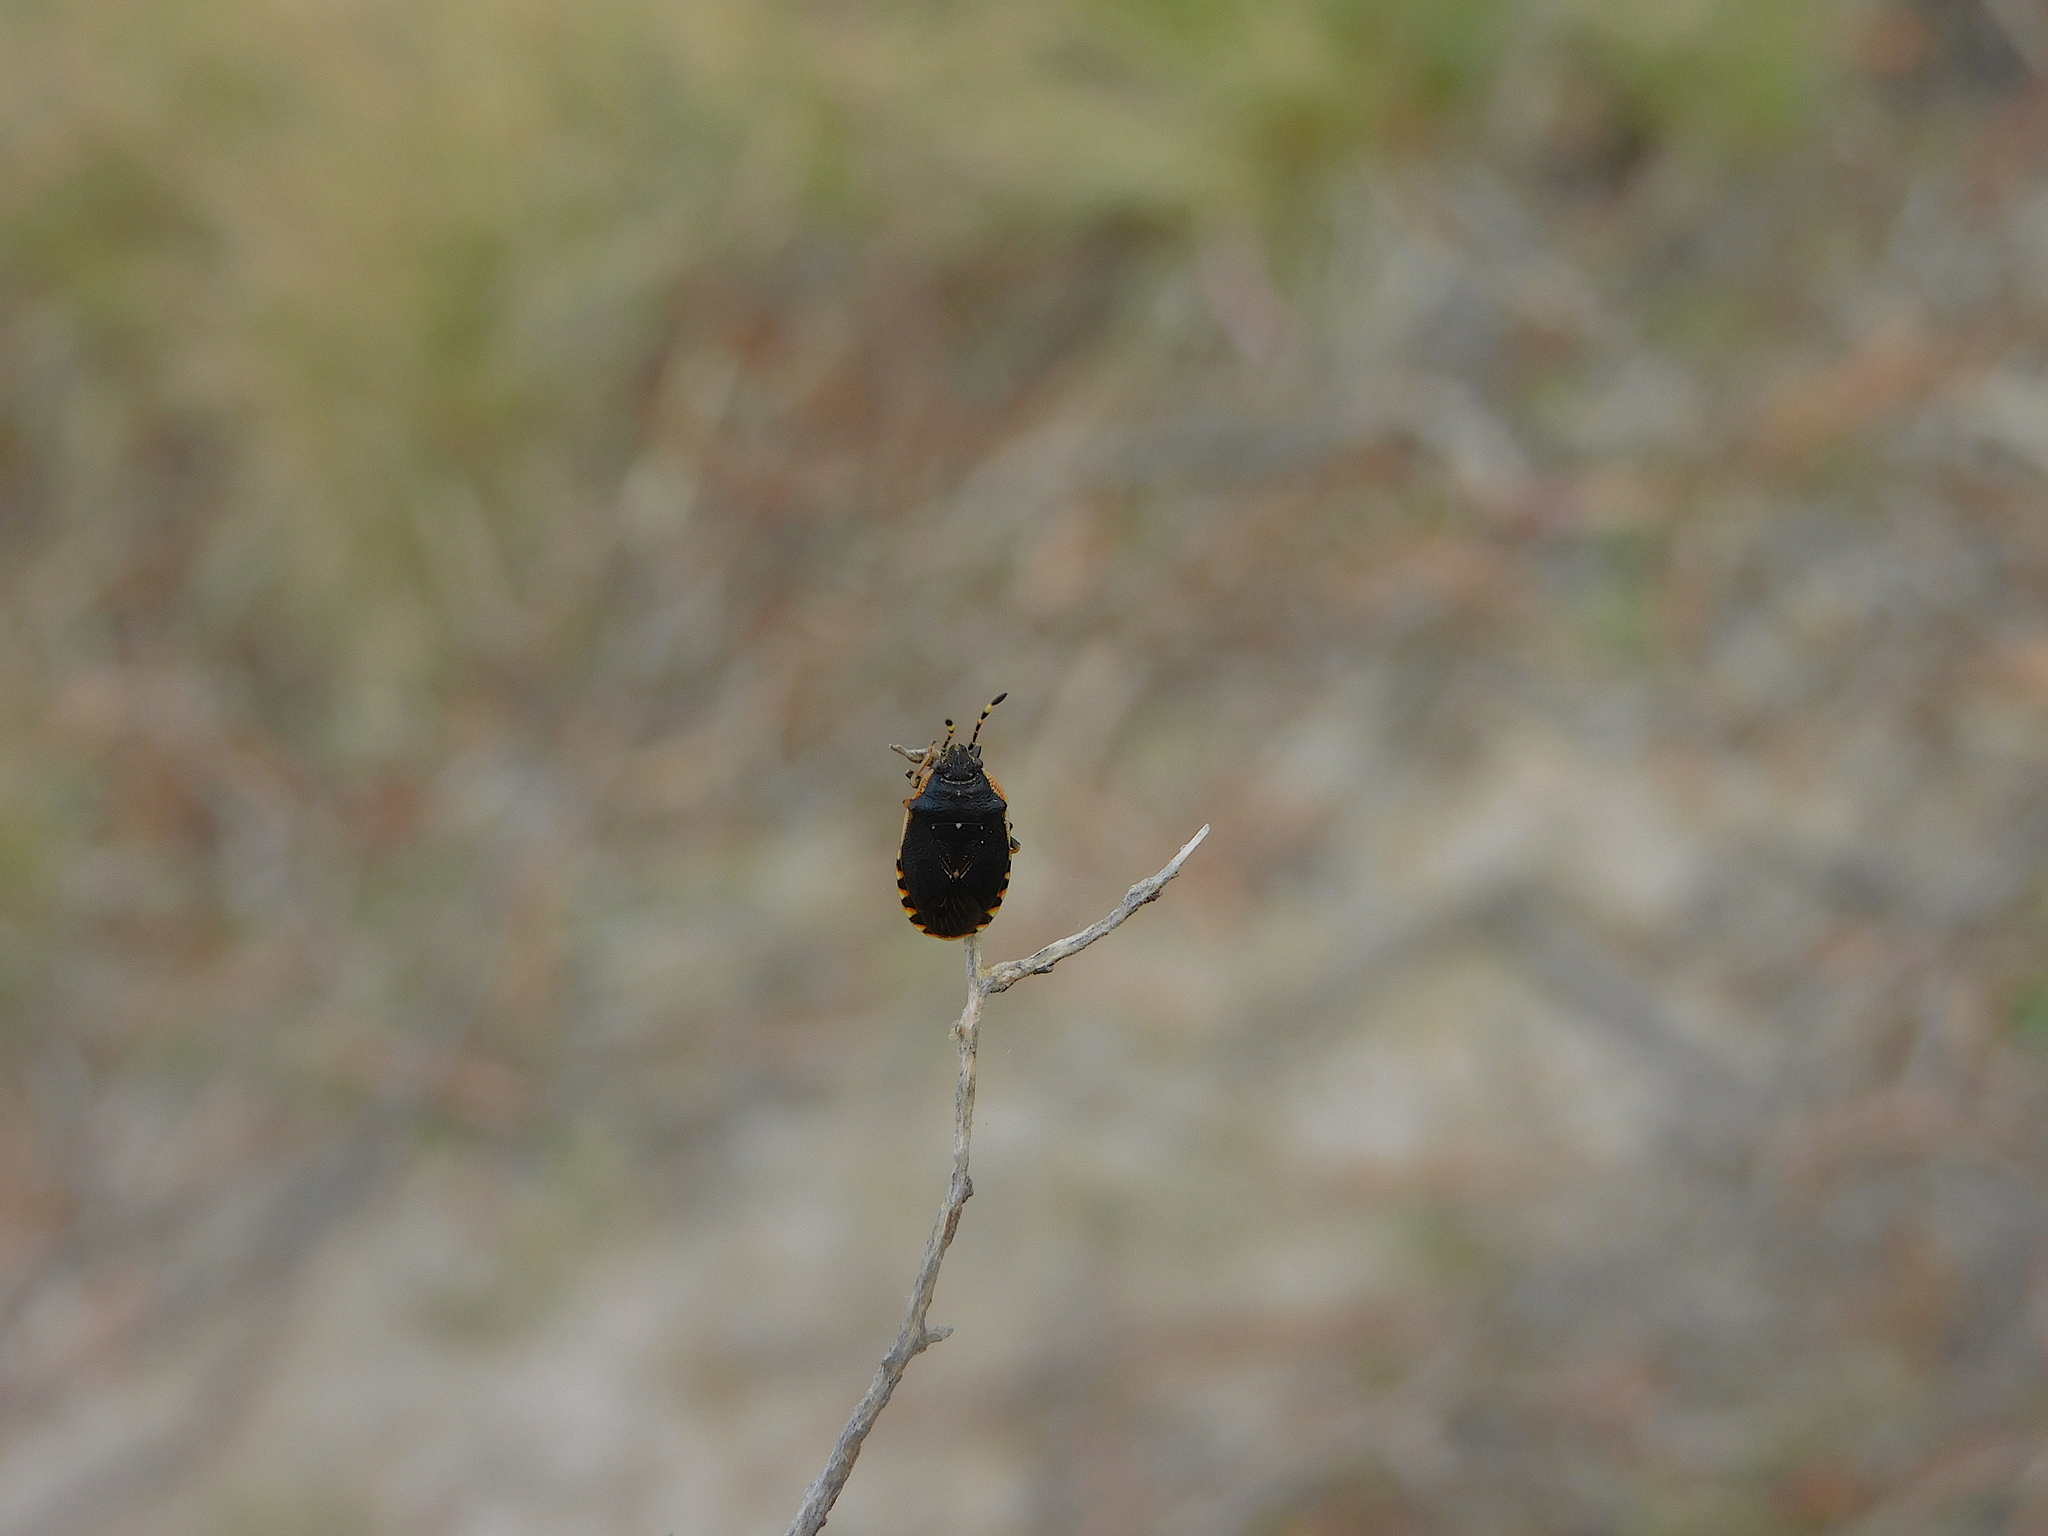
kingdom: Animalia
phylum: Arthropoda
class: Insecta
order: Hemiptera
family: Acanthosomatidae
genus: Anischys
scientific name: Anischys lundbecki
